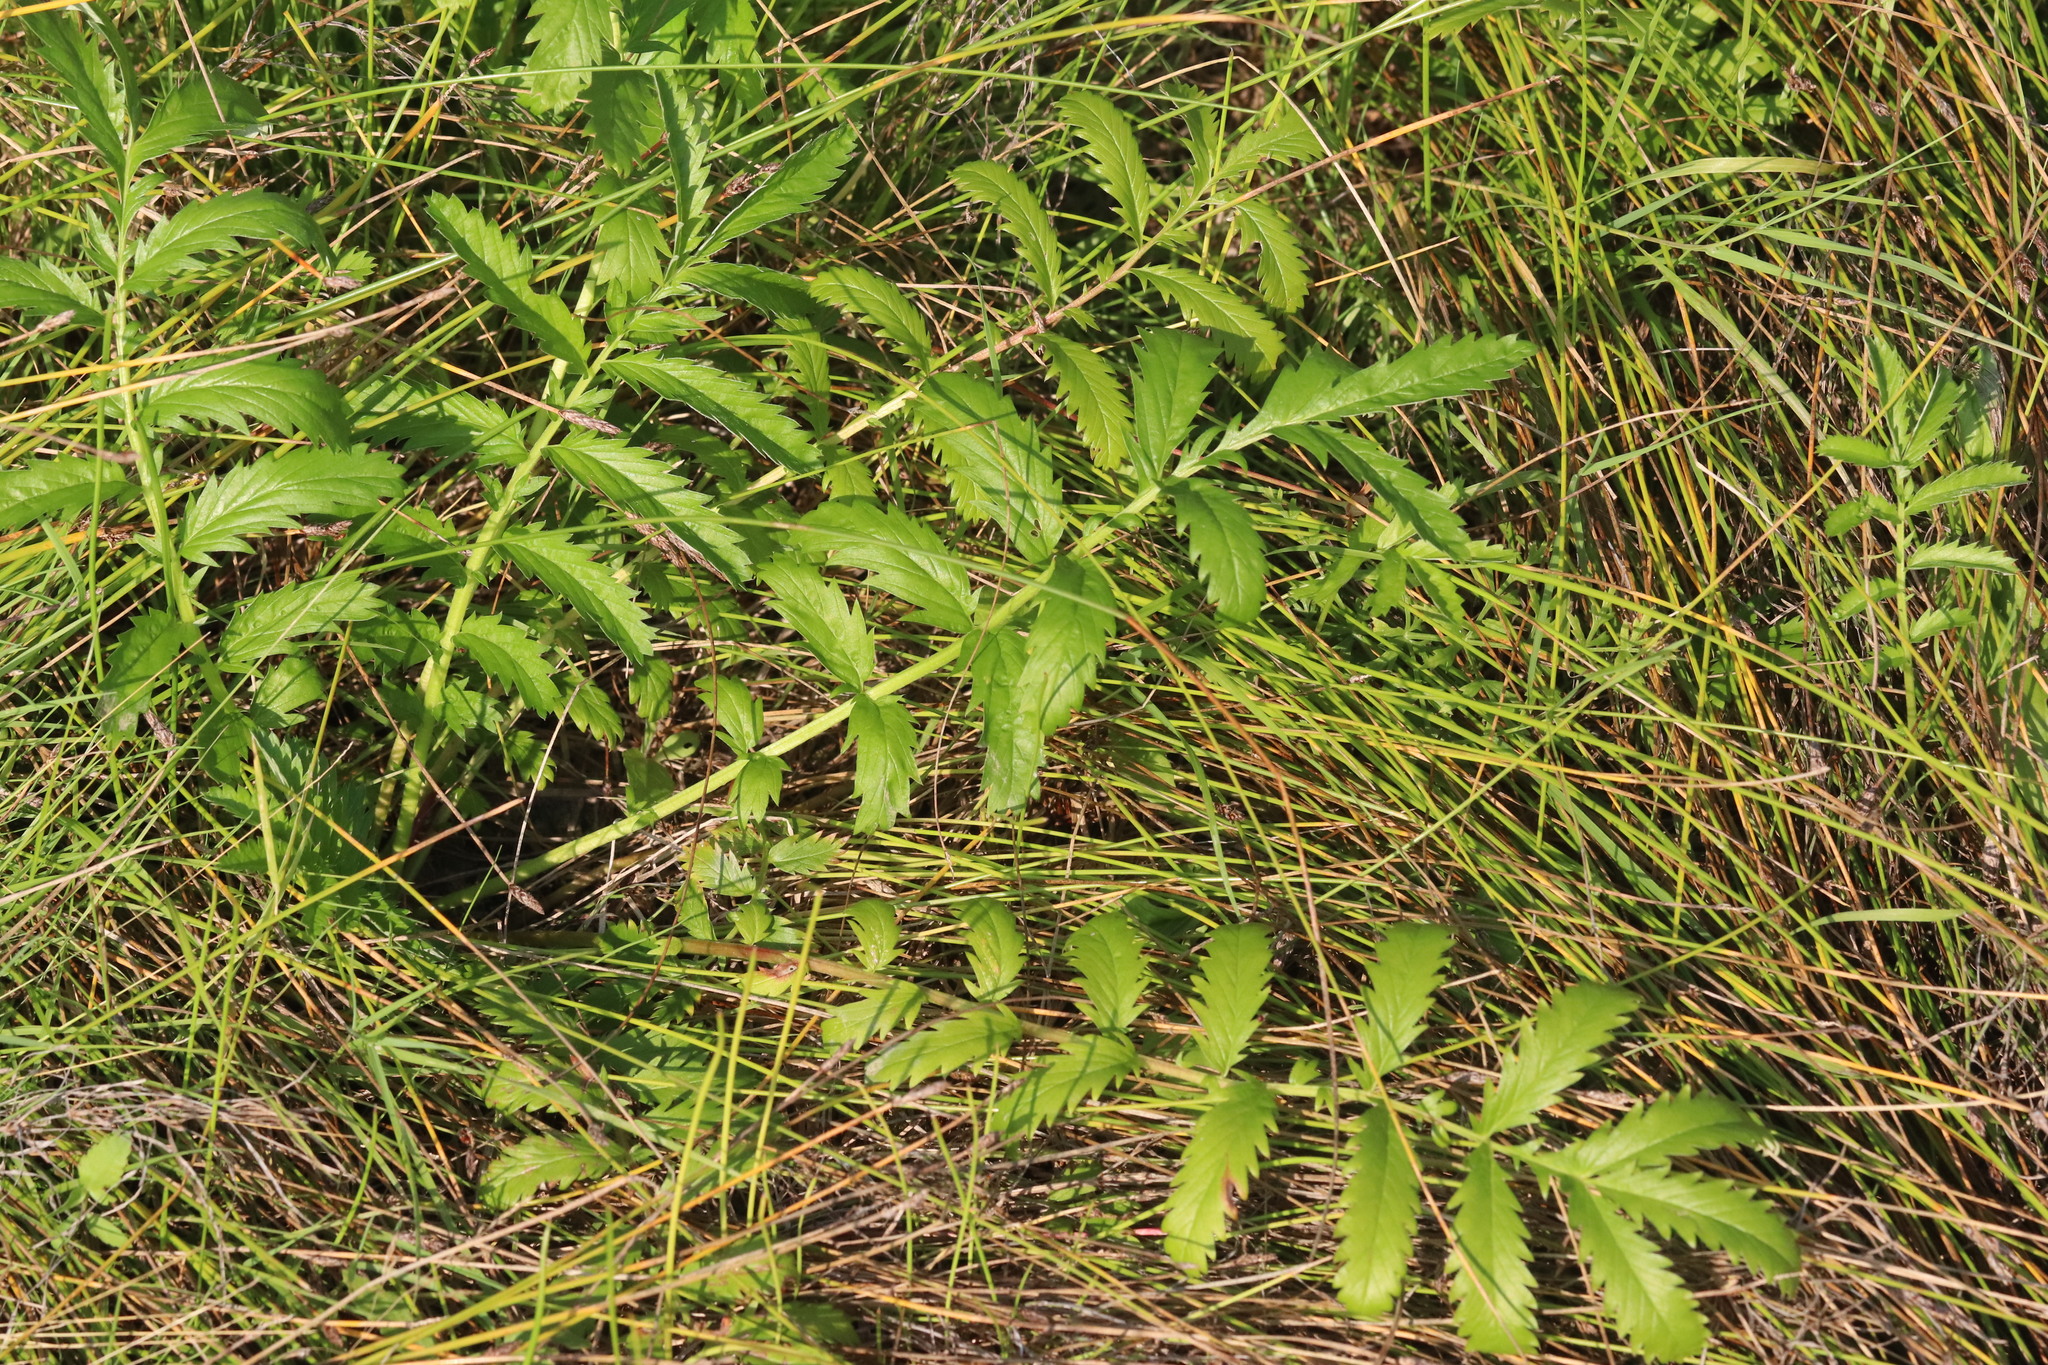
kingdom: Plantae
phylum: Tracheophyta
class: Magnoliopsida
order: Rosales
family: Rosaceae
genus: Argentina
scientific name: Argentina anserina
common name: Common silverweed
